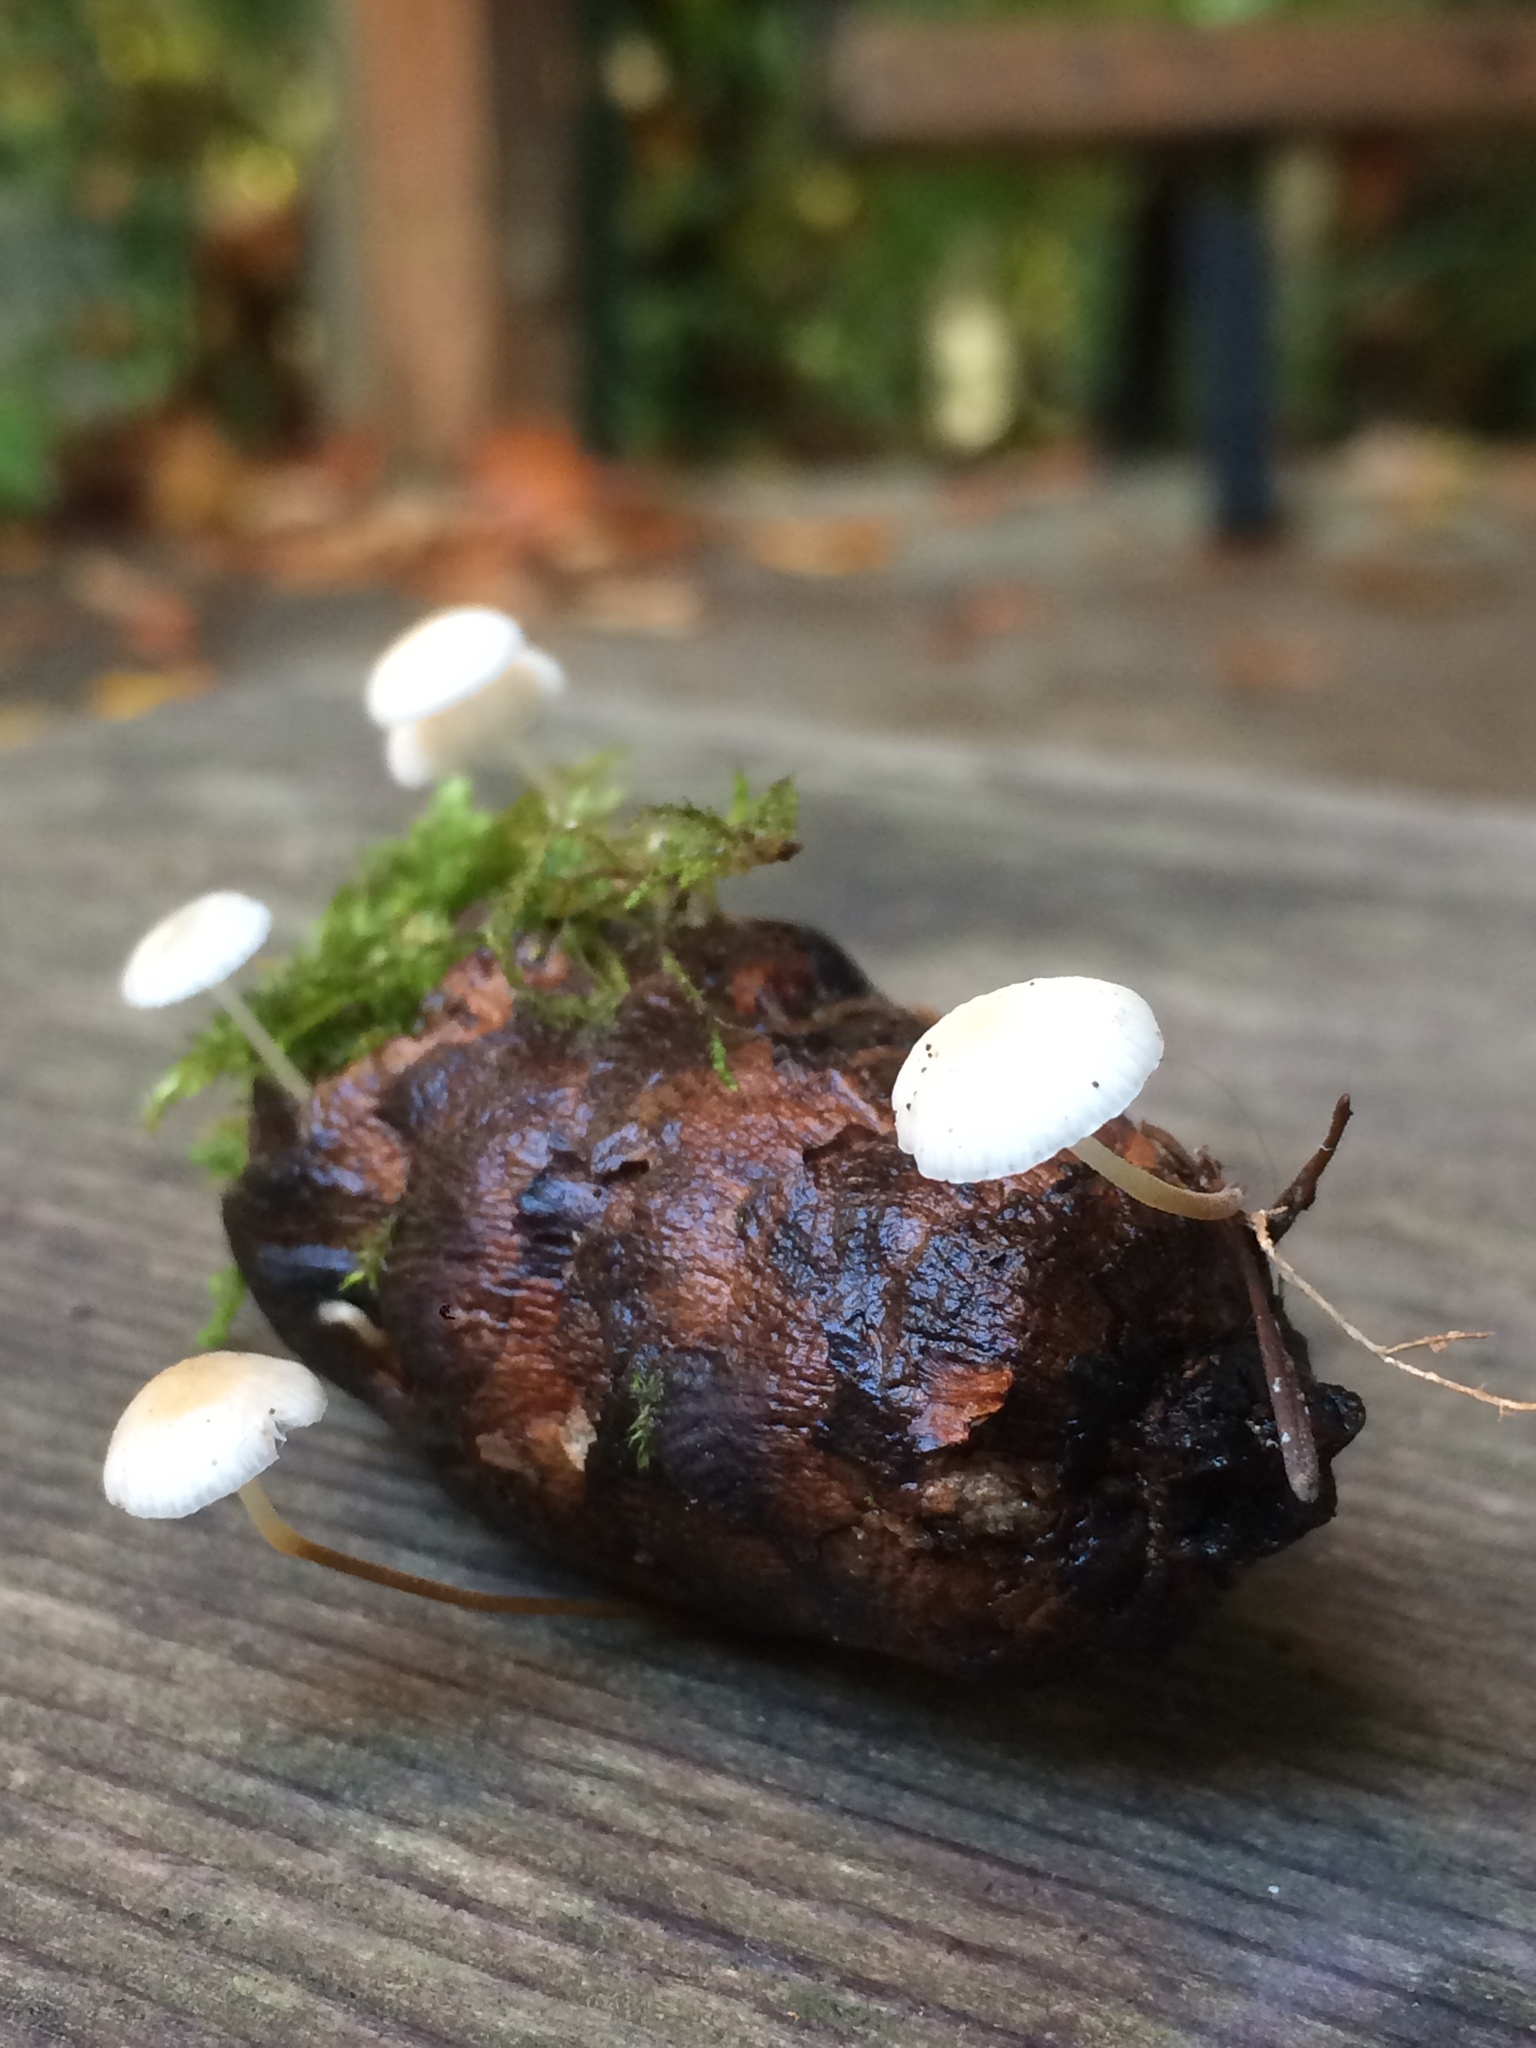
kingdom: Fungi
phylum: Basidiomycota
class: Agaricomycetes
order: Agaricales
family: Physalacriaceae
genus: Strobilurus
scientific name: Strobilurus trullisatus
